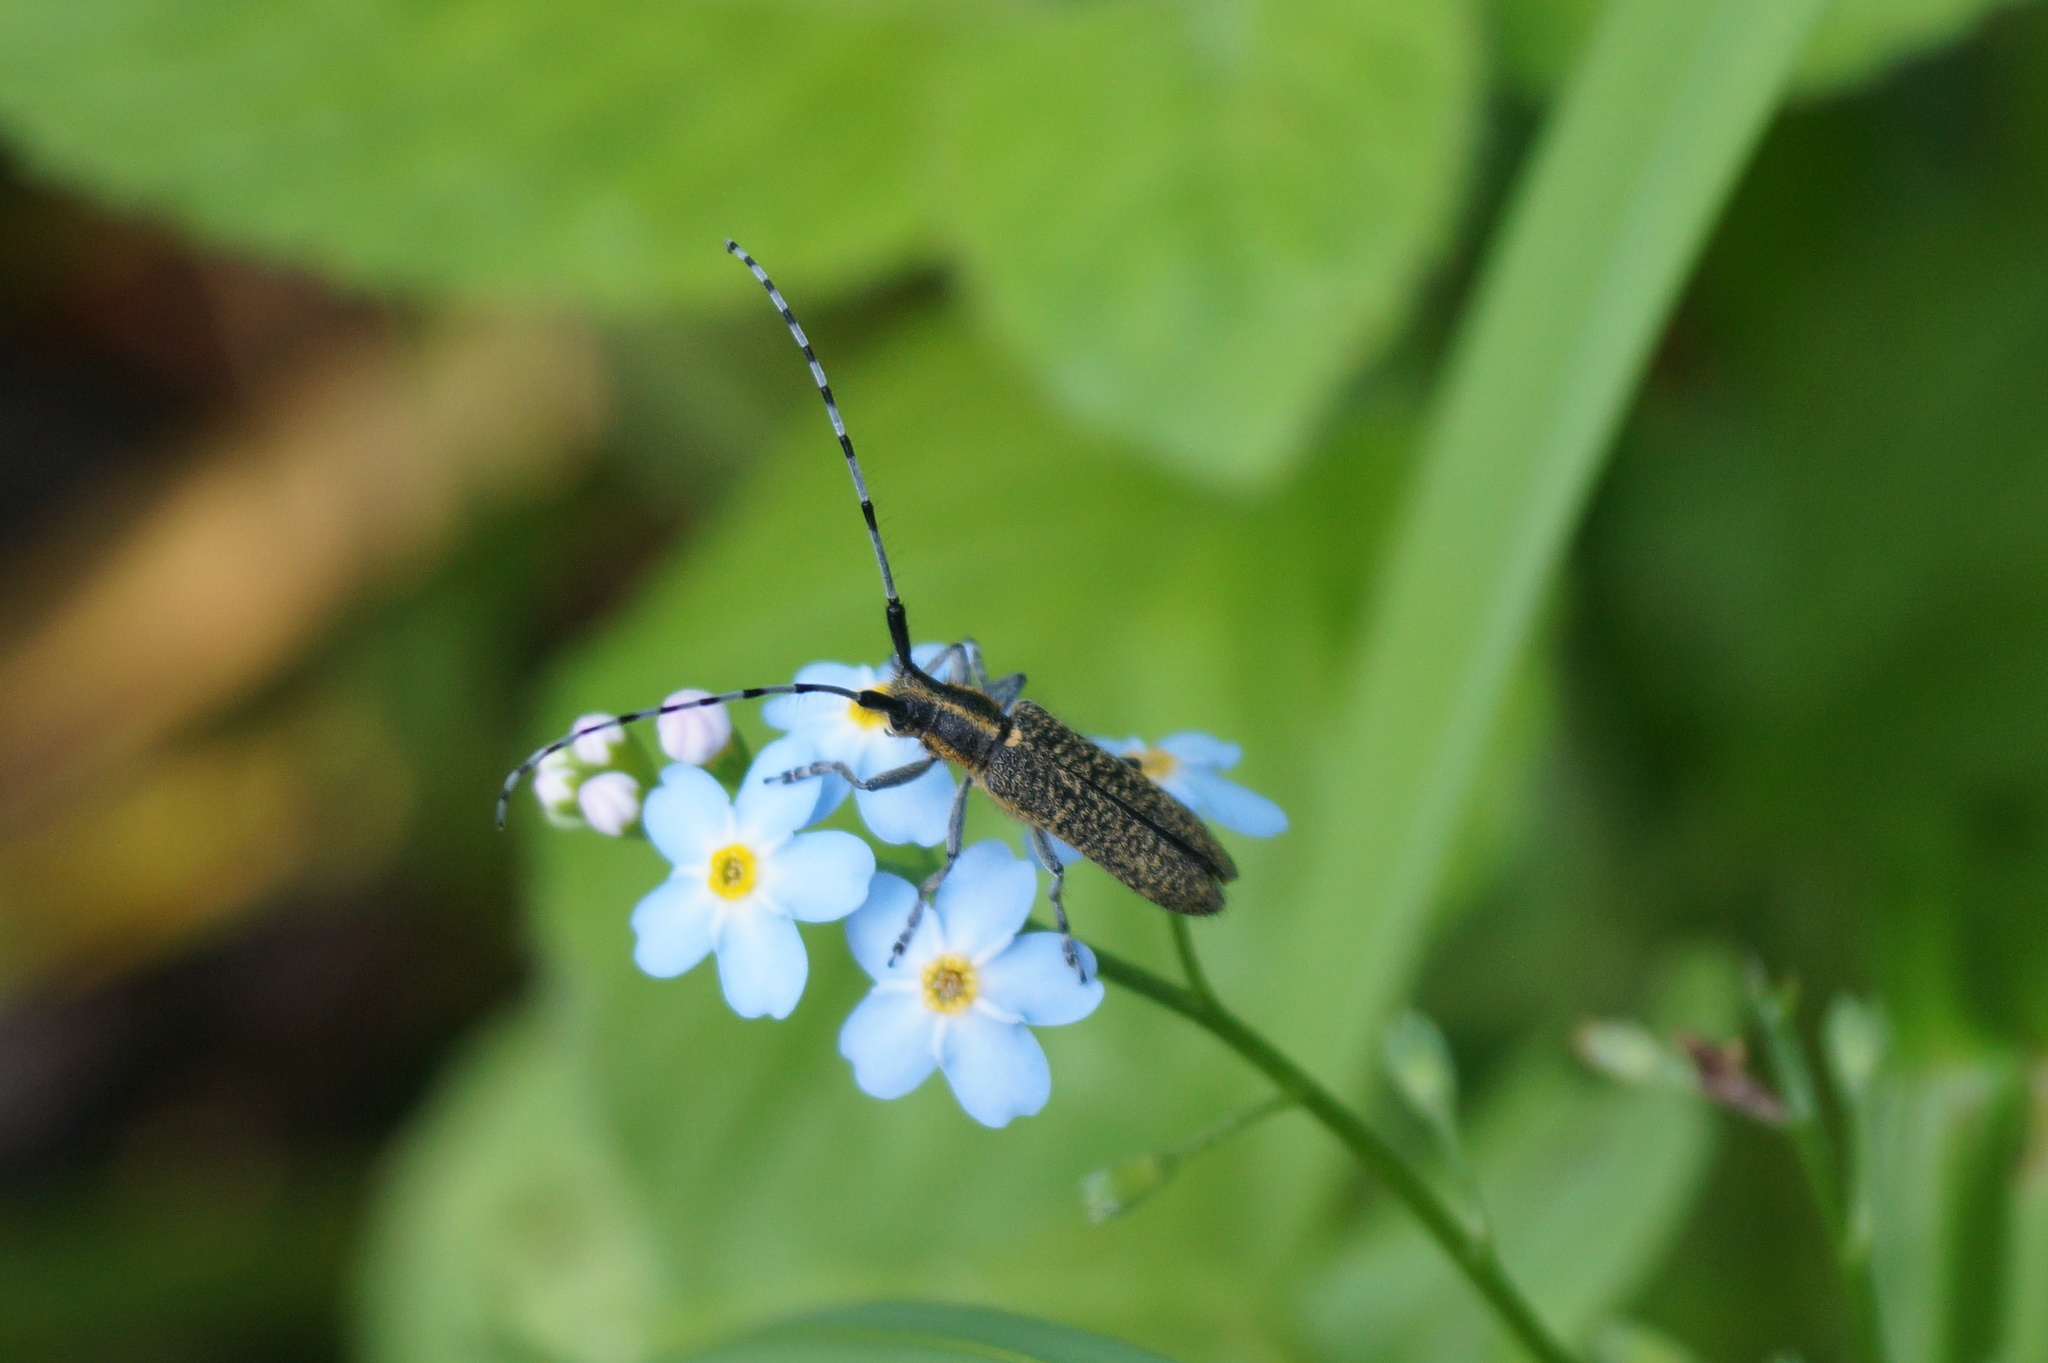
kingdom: Animalia
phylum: Arthropoda
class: Insecta
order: Coleoptera
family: Cerambycidae
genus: Agapanthia
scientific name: Agapanthia villosoviridescens
